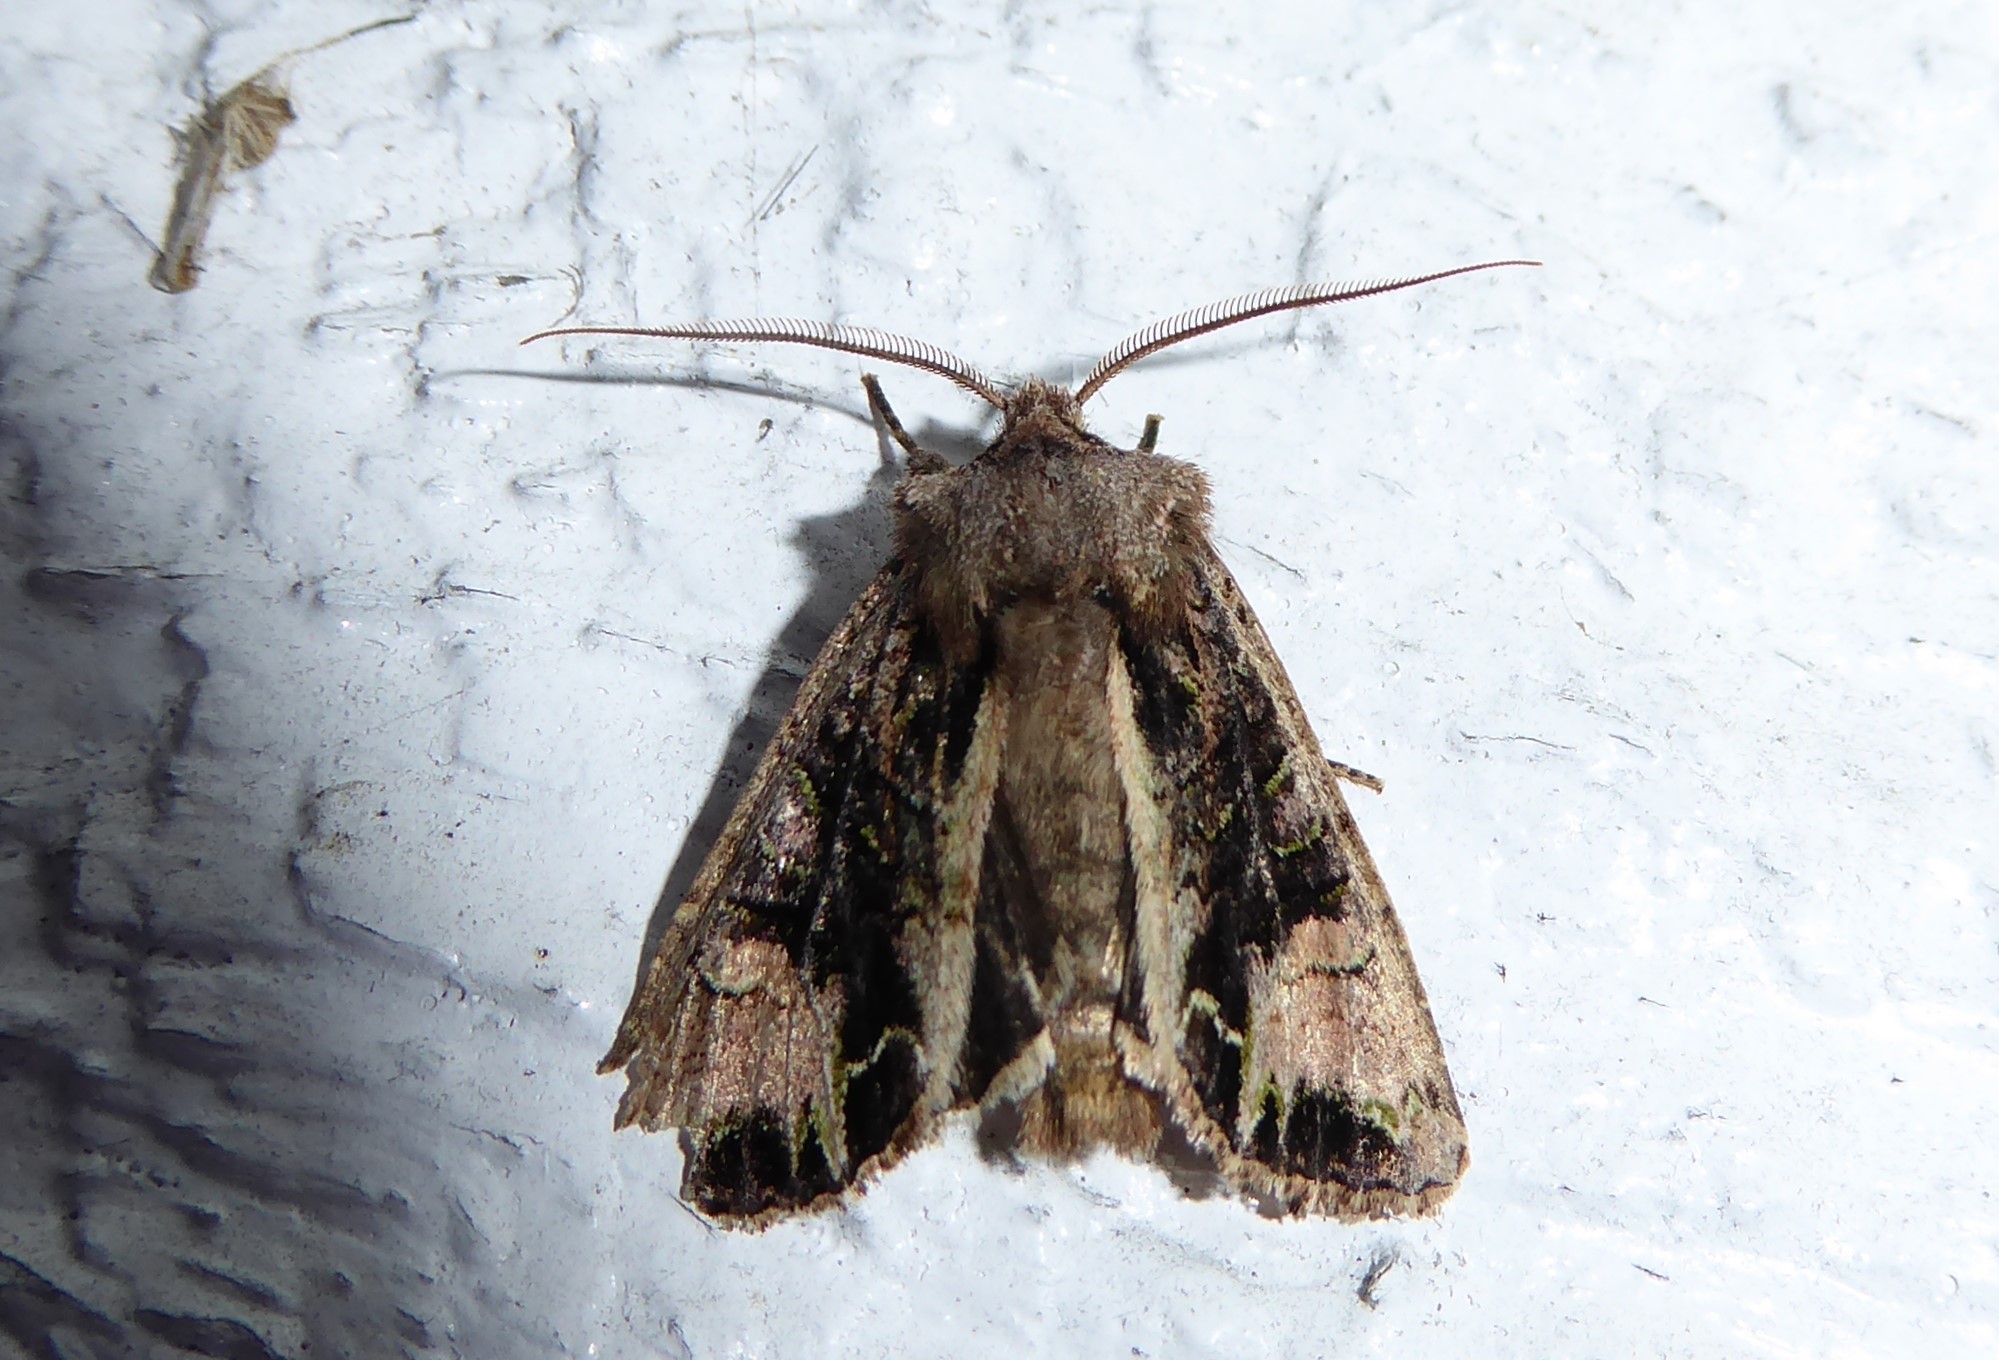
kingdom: Animalia
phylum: Arthropoda
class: Insecta
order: Lepidoptera
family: Noctuidae
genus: Ichneutica
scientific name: Ichneutica
